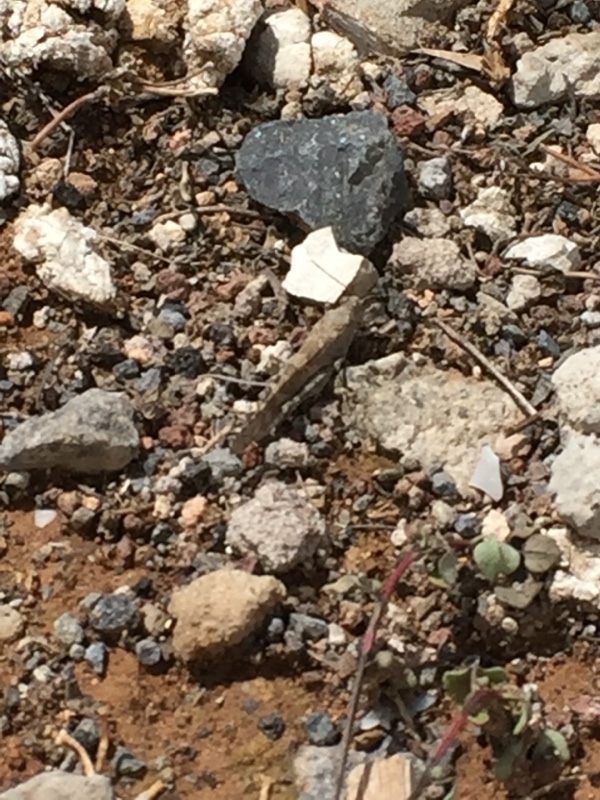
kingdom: Animalia
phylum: Arthropoda
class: Insecta
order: Orthoptera
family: Acrididae
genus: Sphingonotus
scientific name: Sphingonotus rubescens
